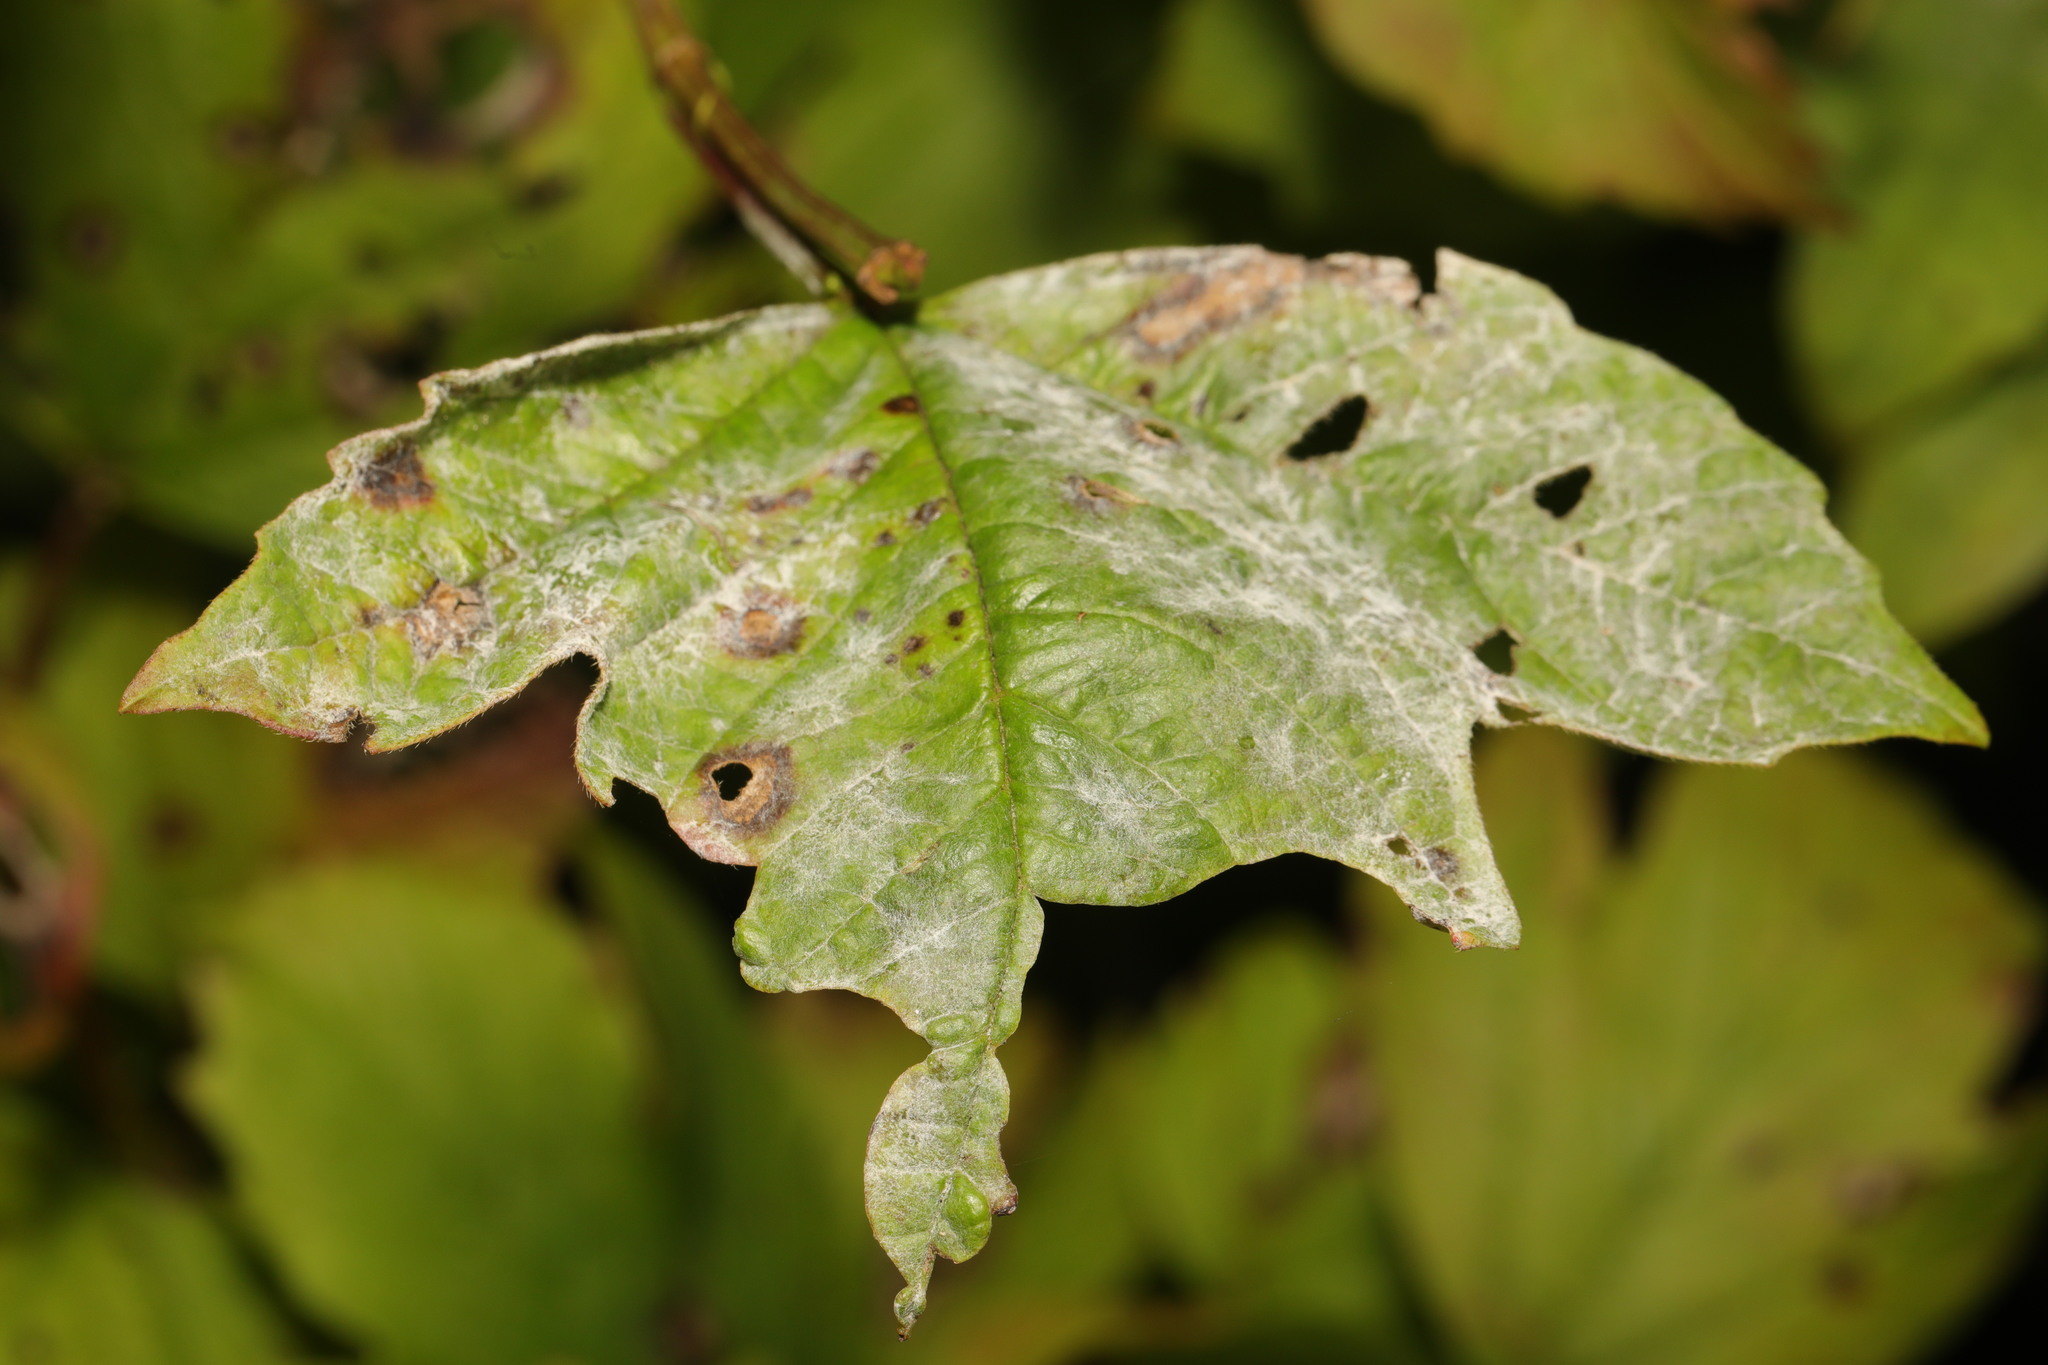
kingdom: Fungi
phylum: Ascomycota
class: Leotiomycetes
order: Helotiales
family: Erysiphaceae
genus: Erysiphe
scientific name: Erysiphe viburni
